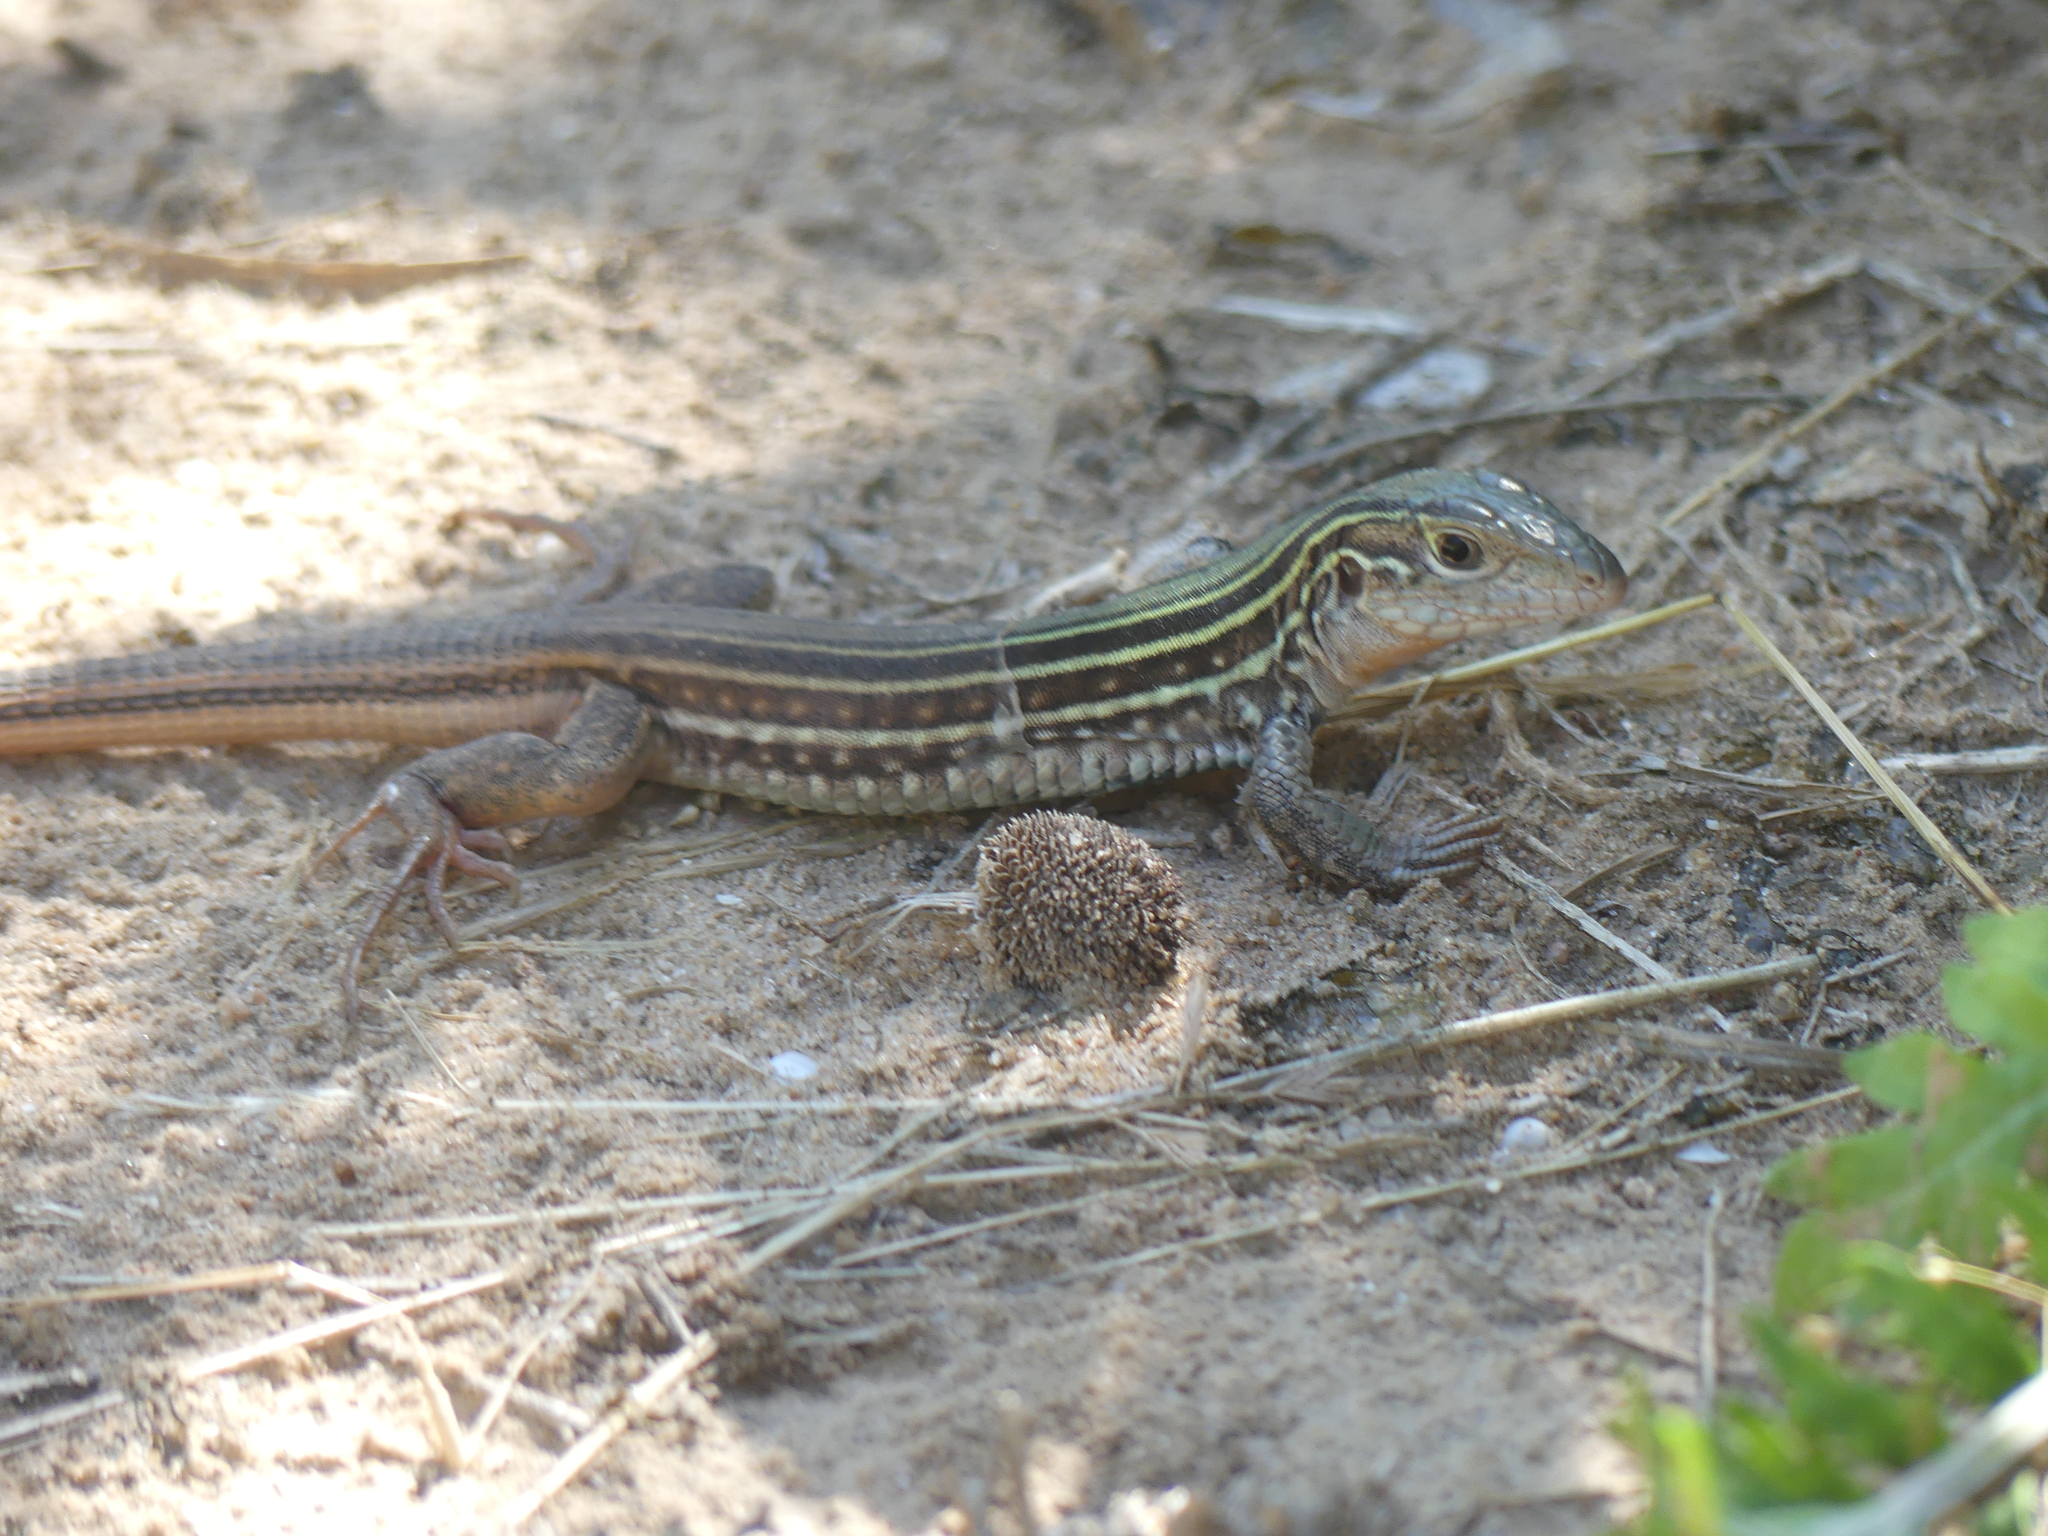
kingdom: Animalia
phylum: Chordata
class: Squamata
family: Teiidae
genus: Aspidoscelis
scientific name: Aspidoscelis gularis
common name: Eastern spotted whiptail
